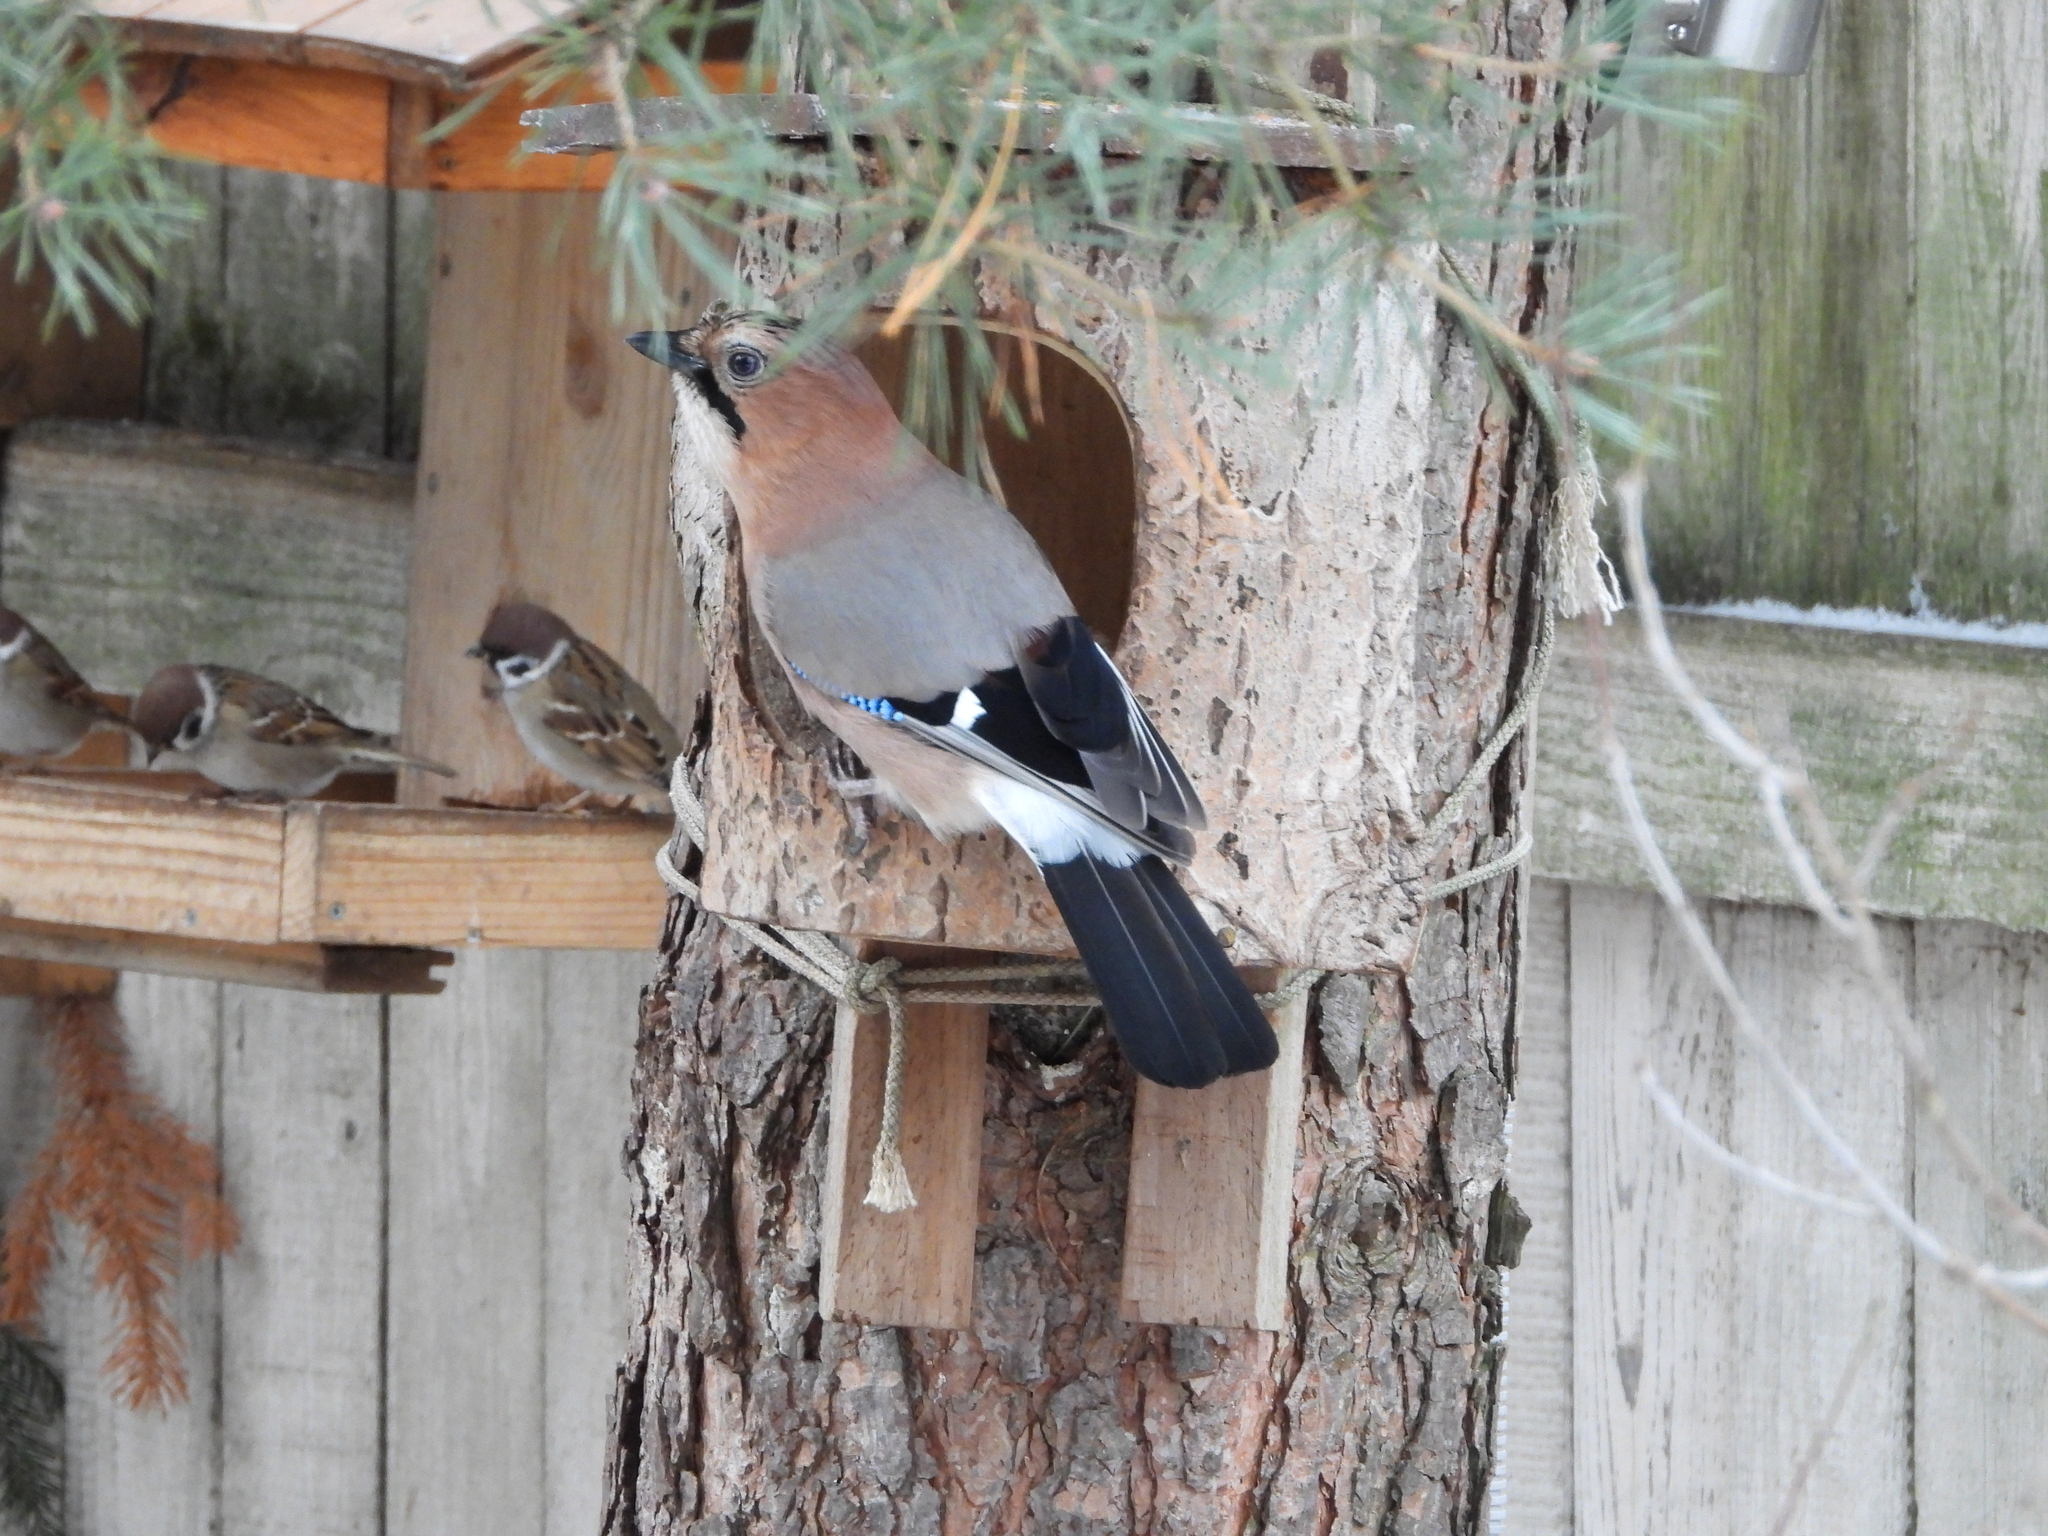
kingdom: Animalia
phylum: Chordata
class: Aves
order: Passeriformes
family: Corvidae
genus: Garrulus
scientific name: Garrulus glandarius
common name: Eurasian jay
